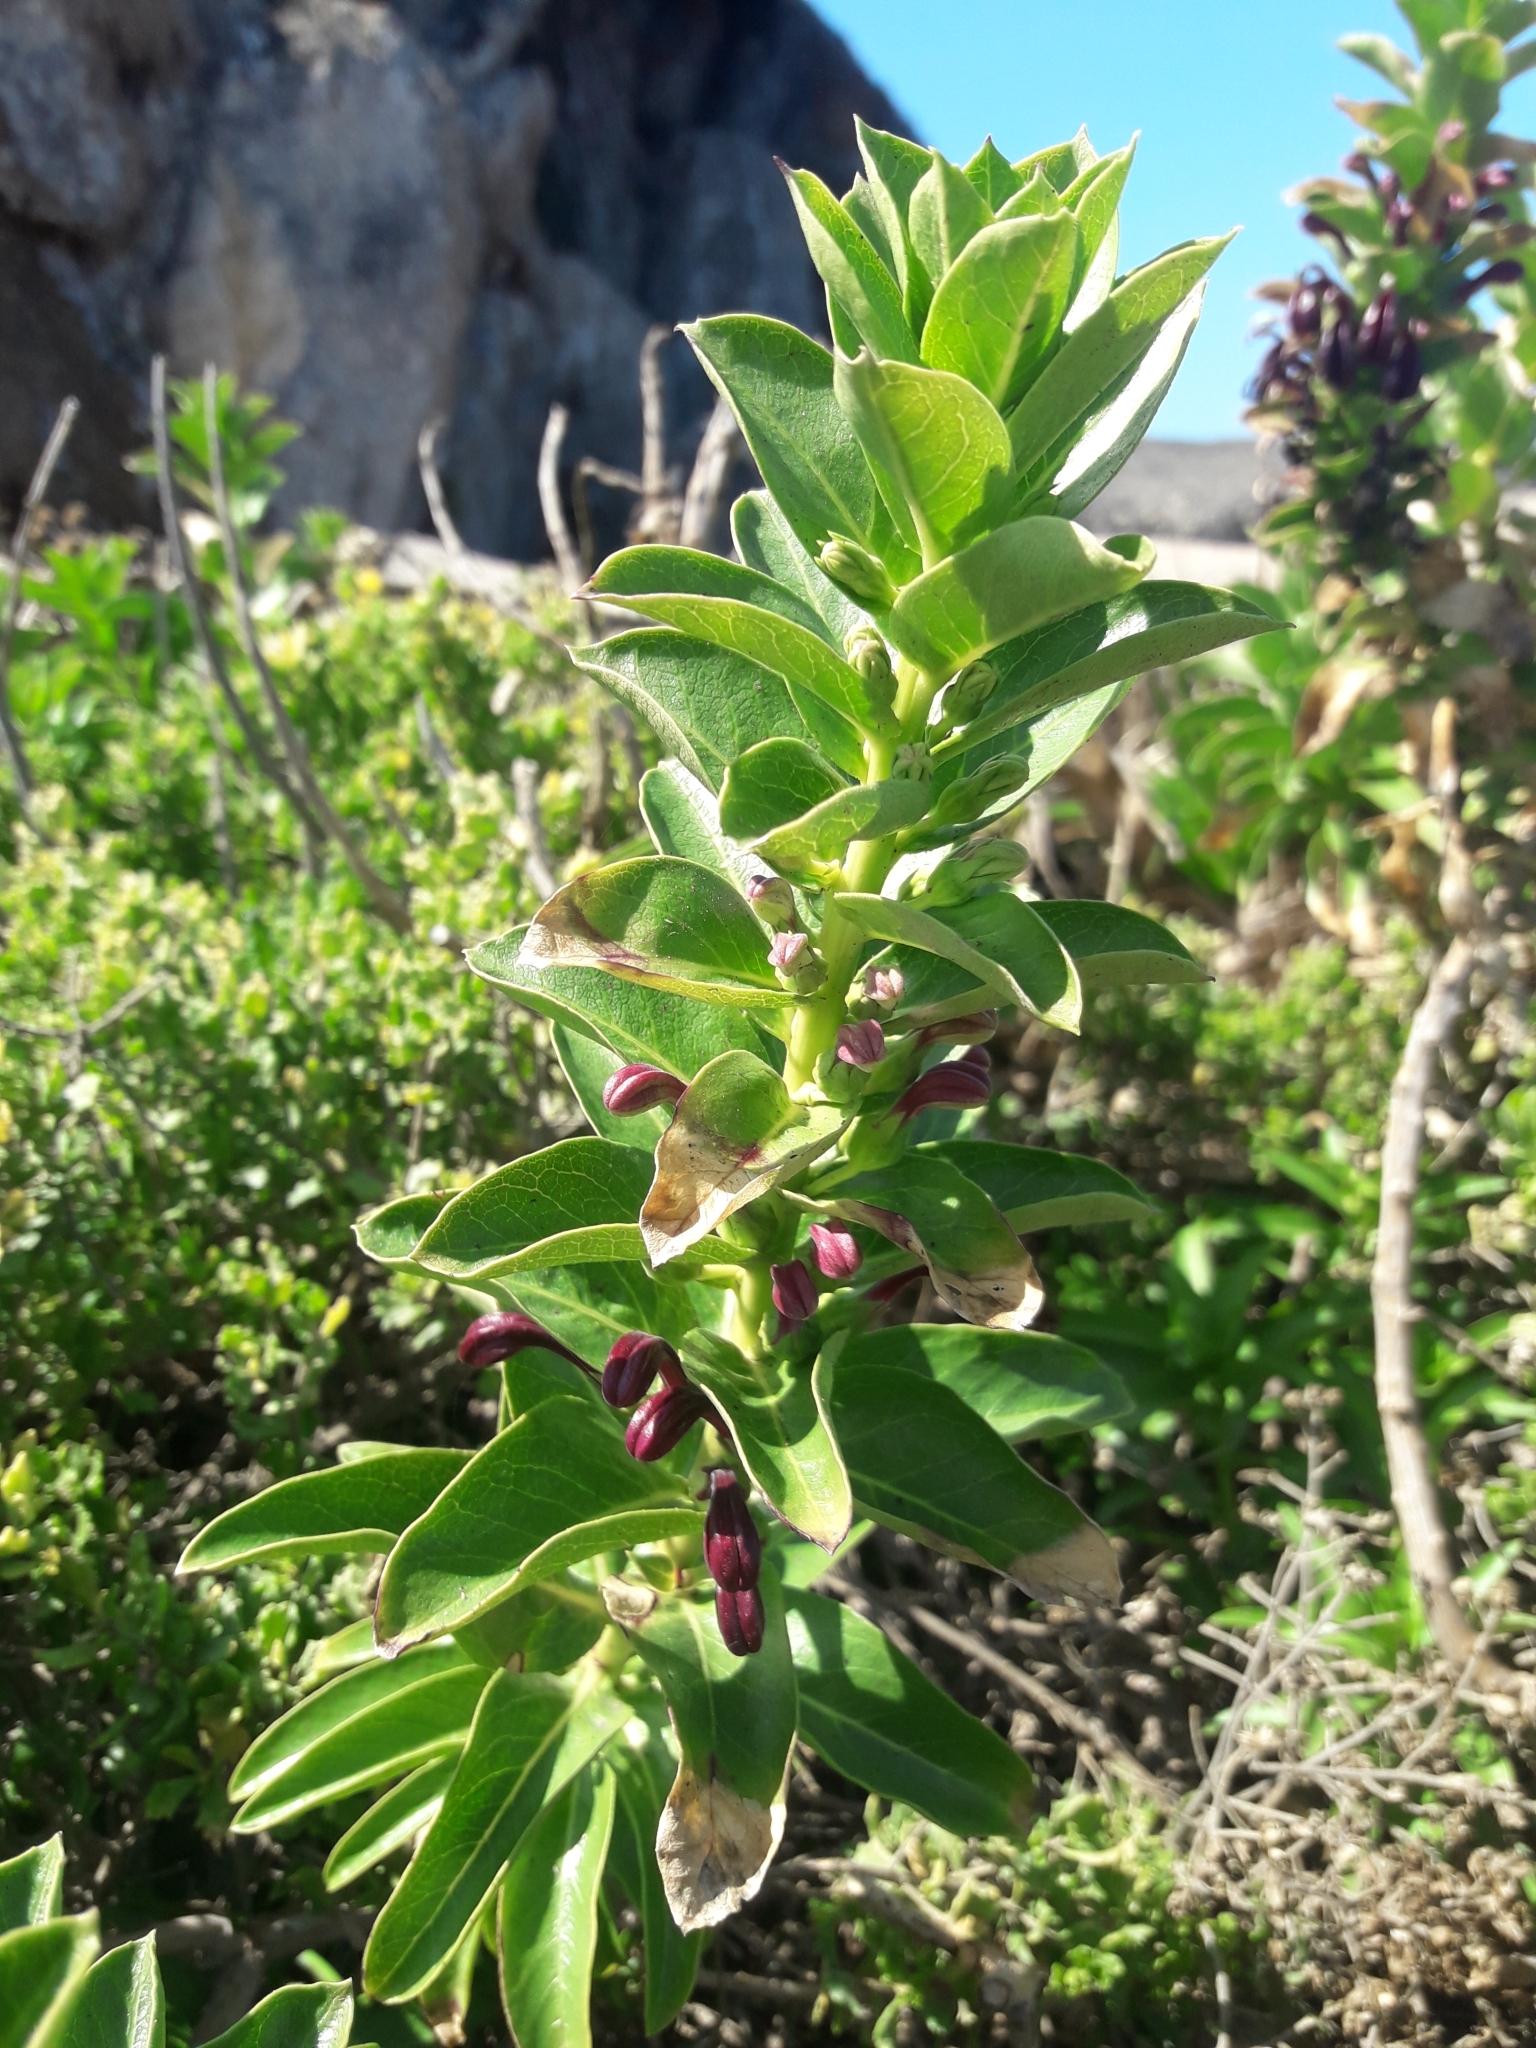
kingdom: Plantae
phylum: Tracheophyta
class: Magnoliopsida
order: Asterales
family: Campanulaceae
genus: Lobelia
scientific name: Lobelia polyphylla
